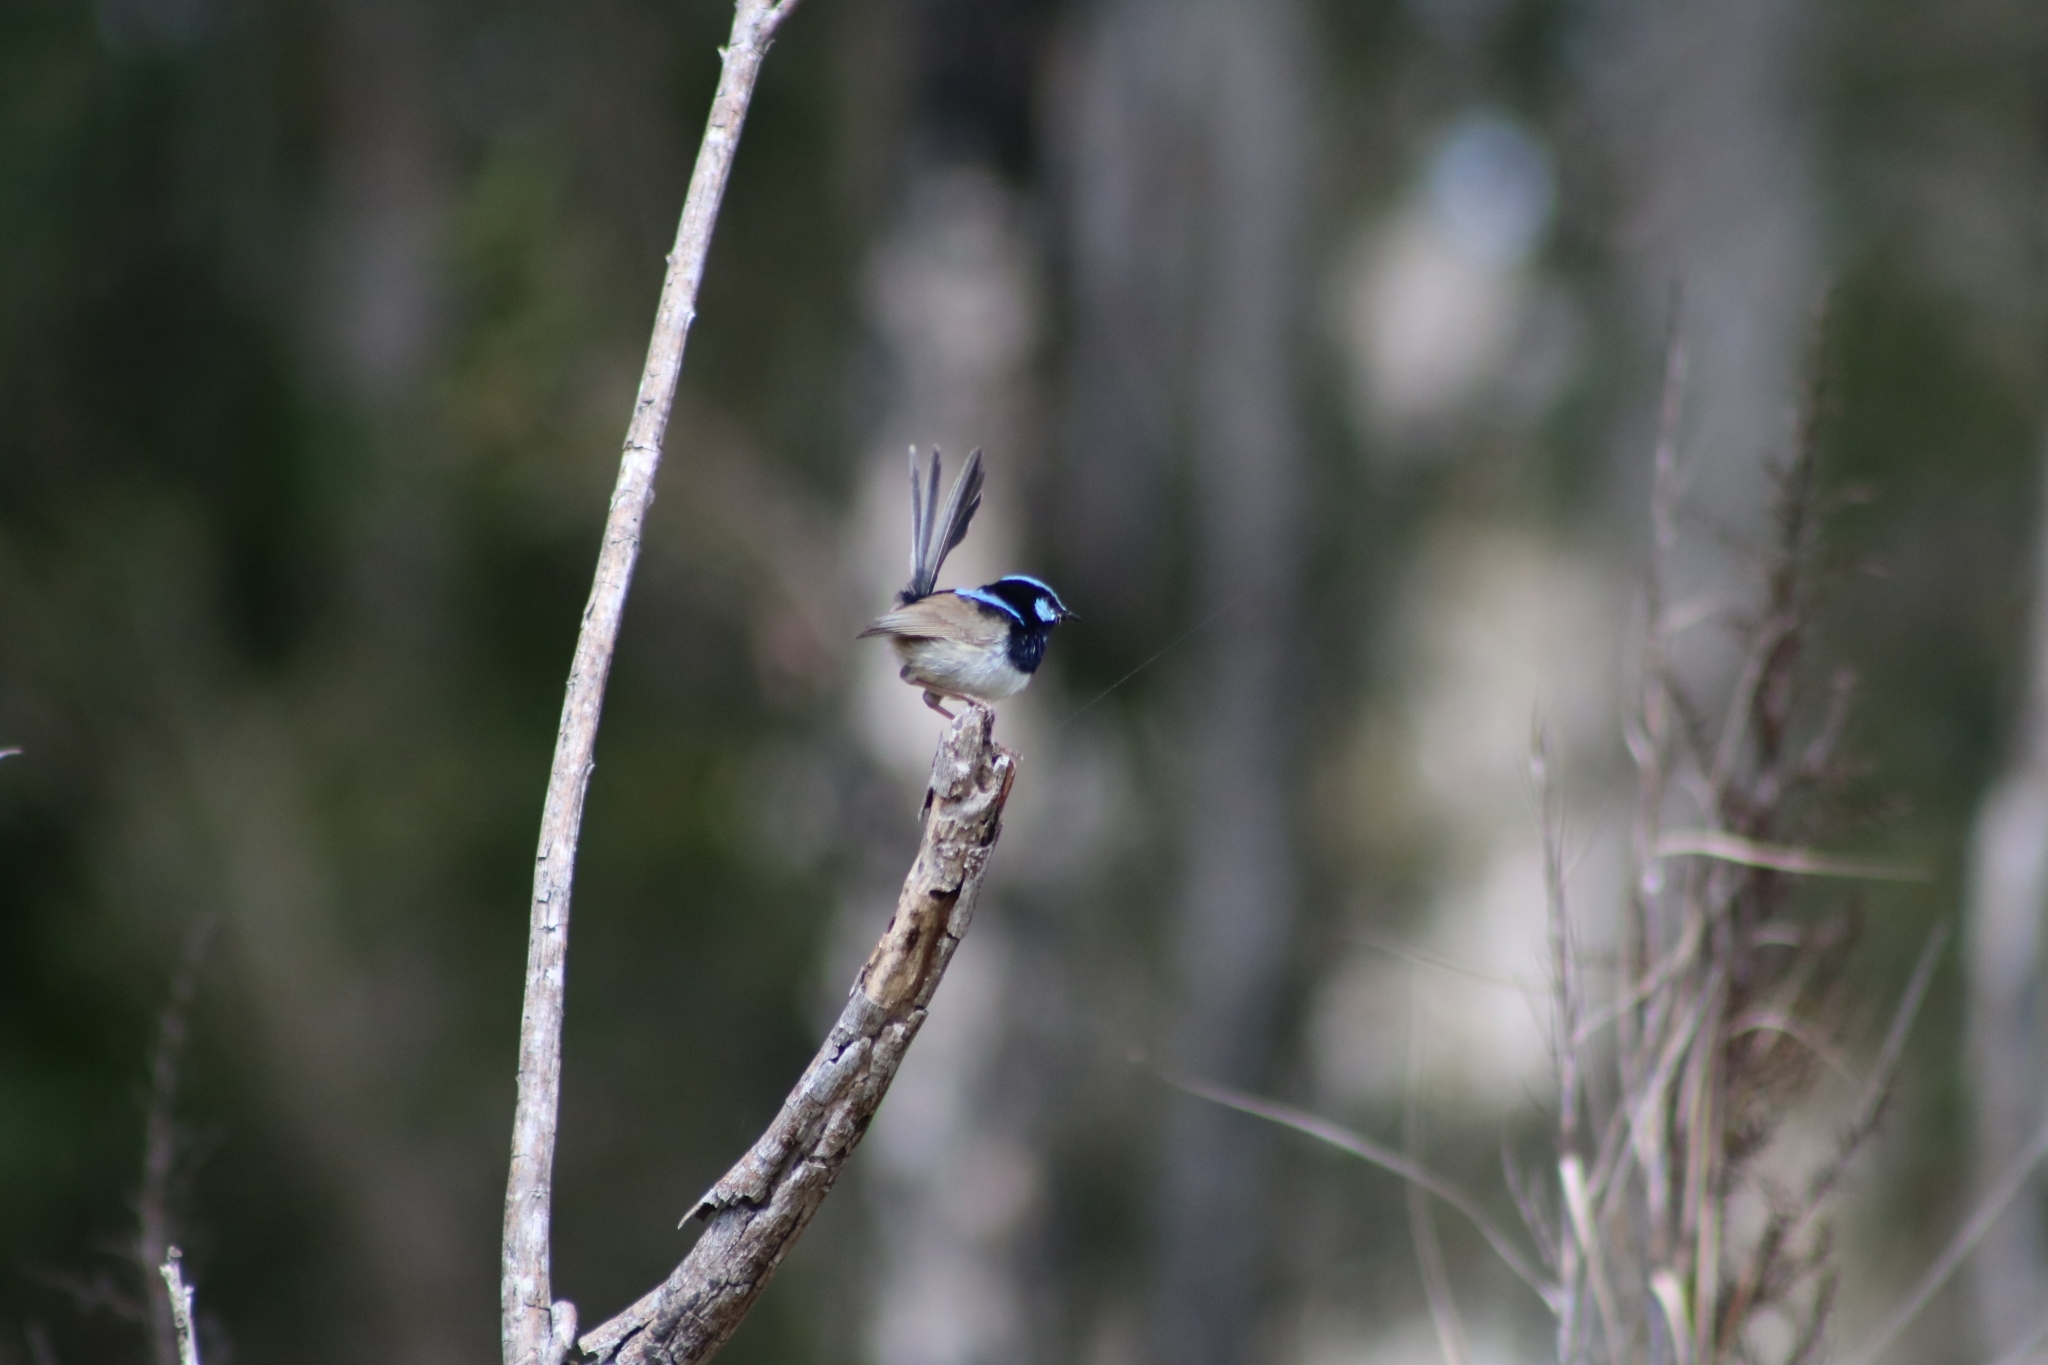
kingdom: Animalia
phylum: Chordata
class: Aves
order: Passeriformes
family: Maluridae
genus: Malurus
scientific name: Malurus cyaneus
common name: Superb fairywren
